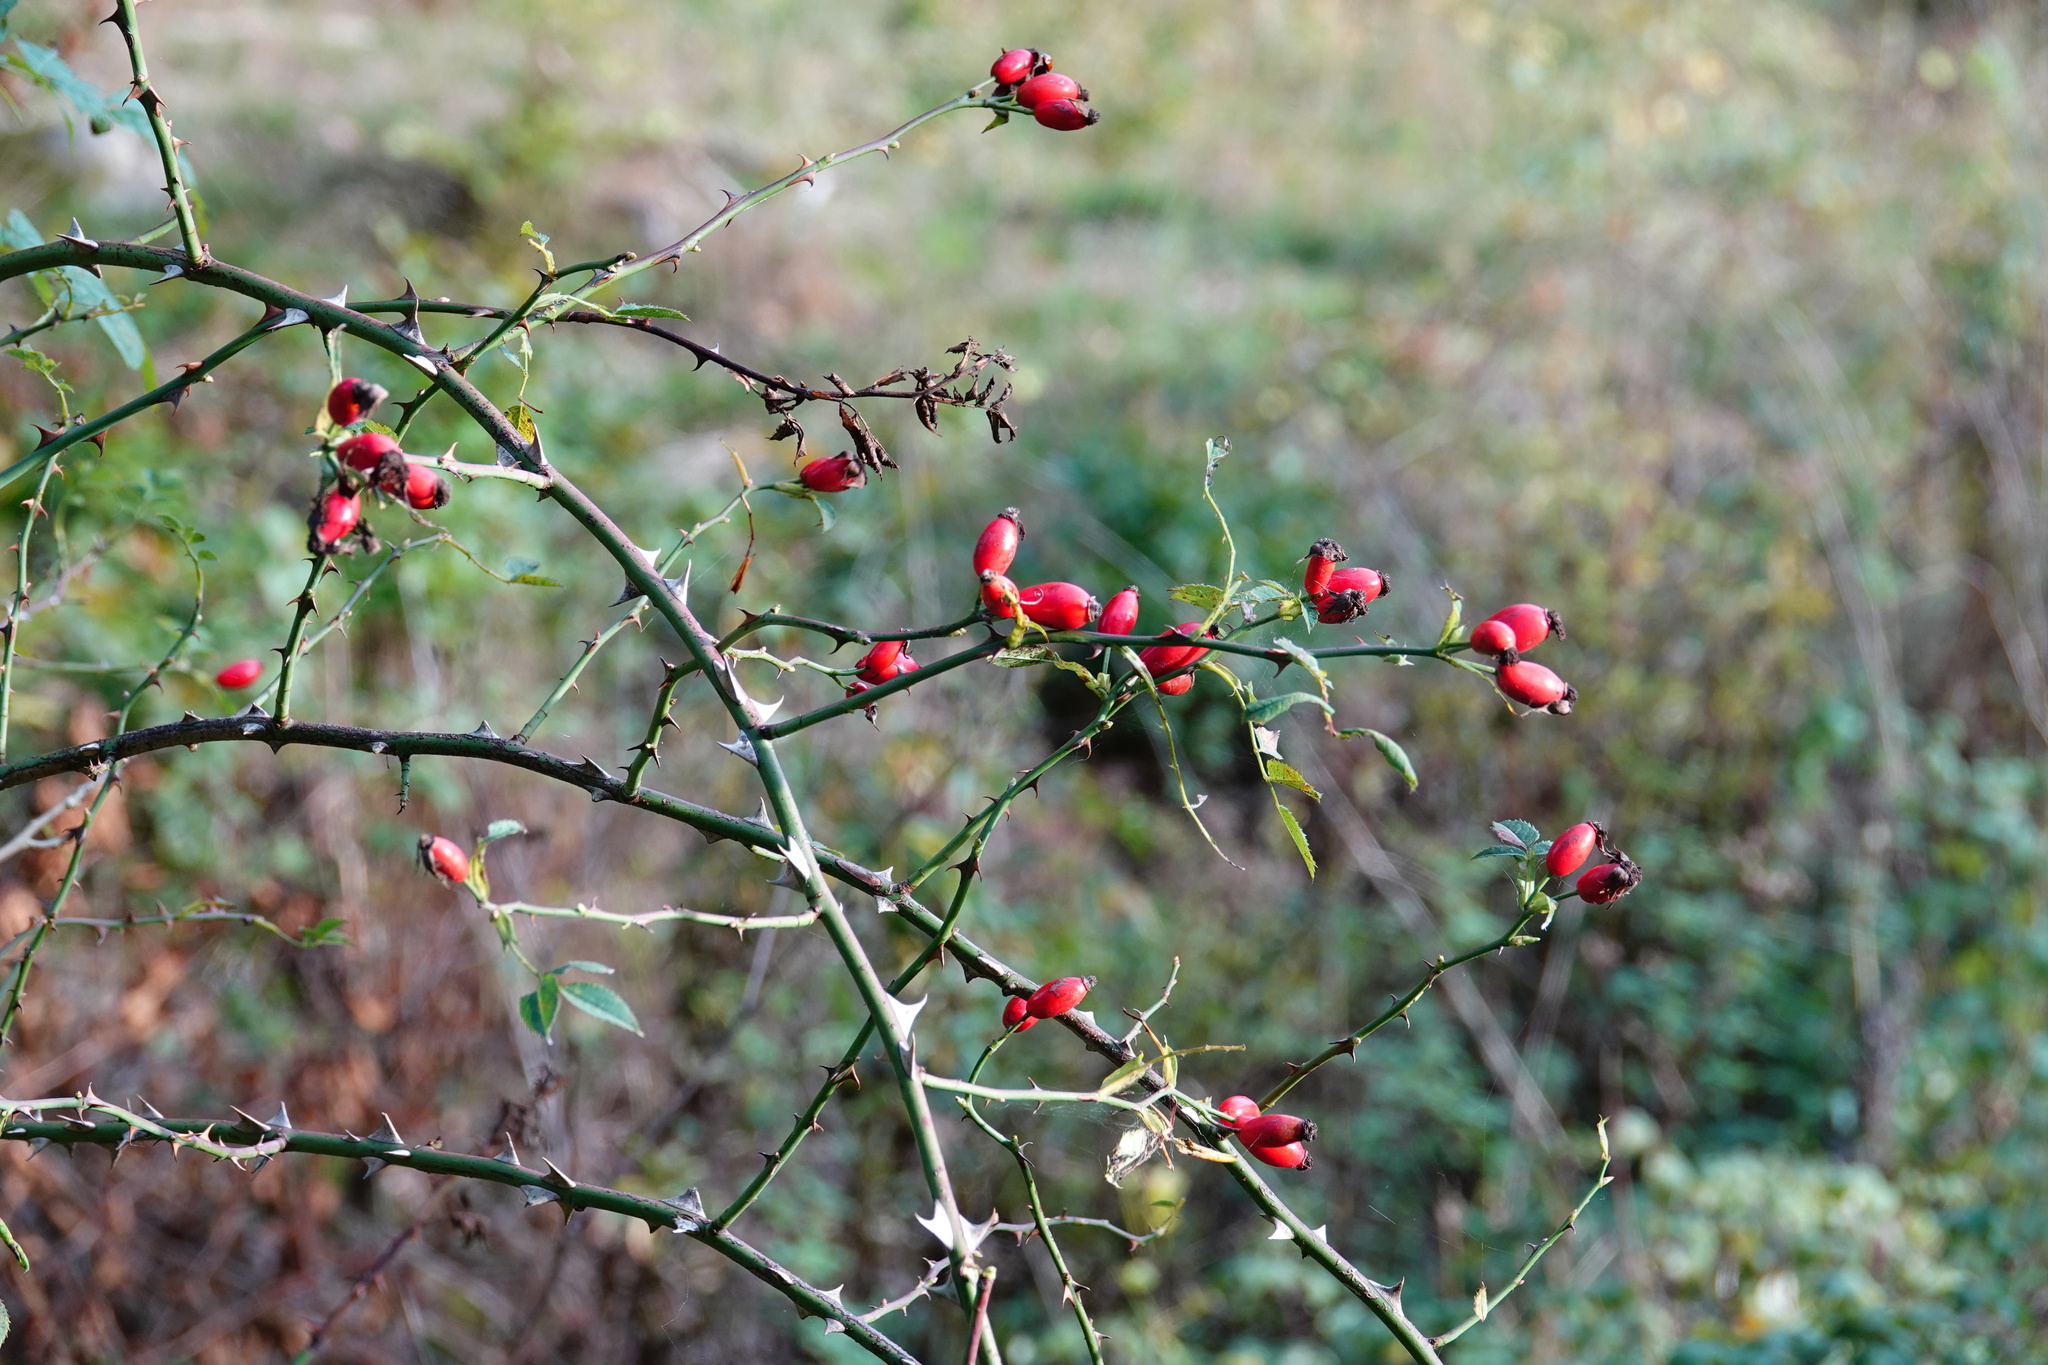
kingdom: Plantae
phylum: Tracheophyta
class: Magnoliopsida
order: Rosales
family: Rosaceae
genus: Rosa
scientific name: Rosa canina
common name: Dog rose
